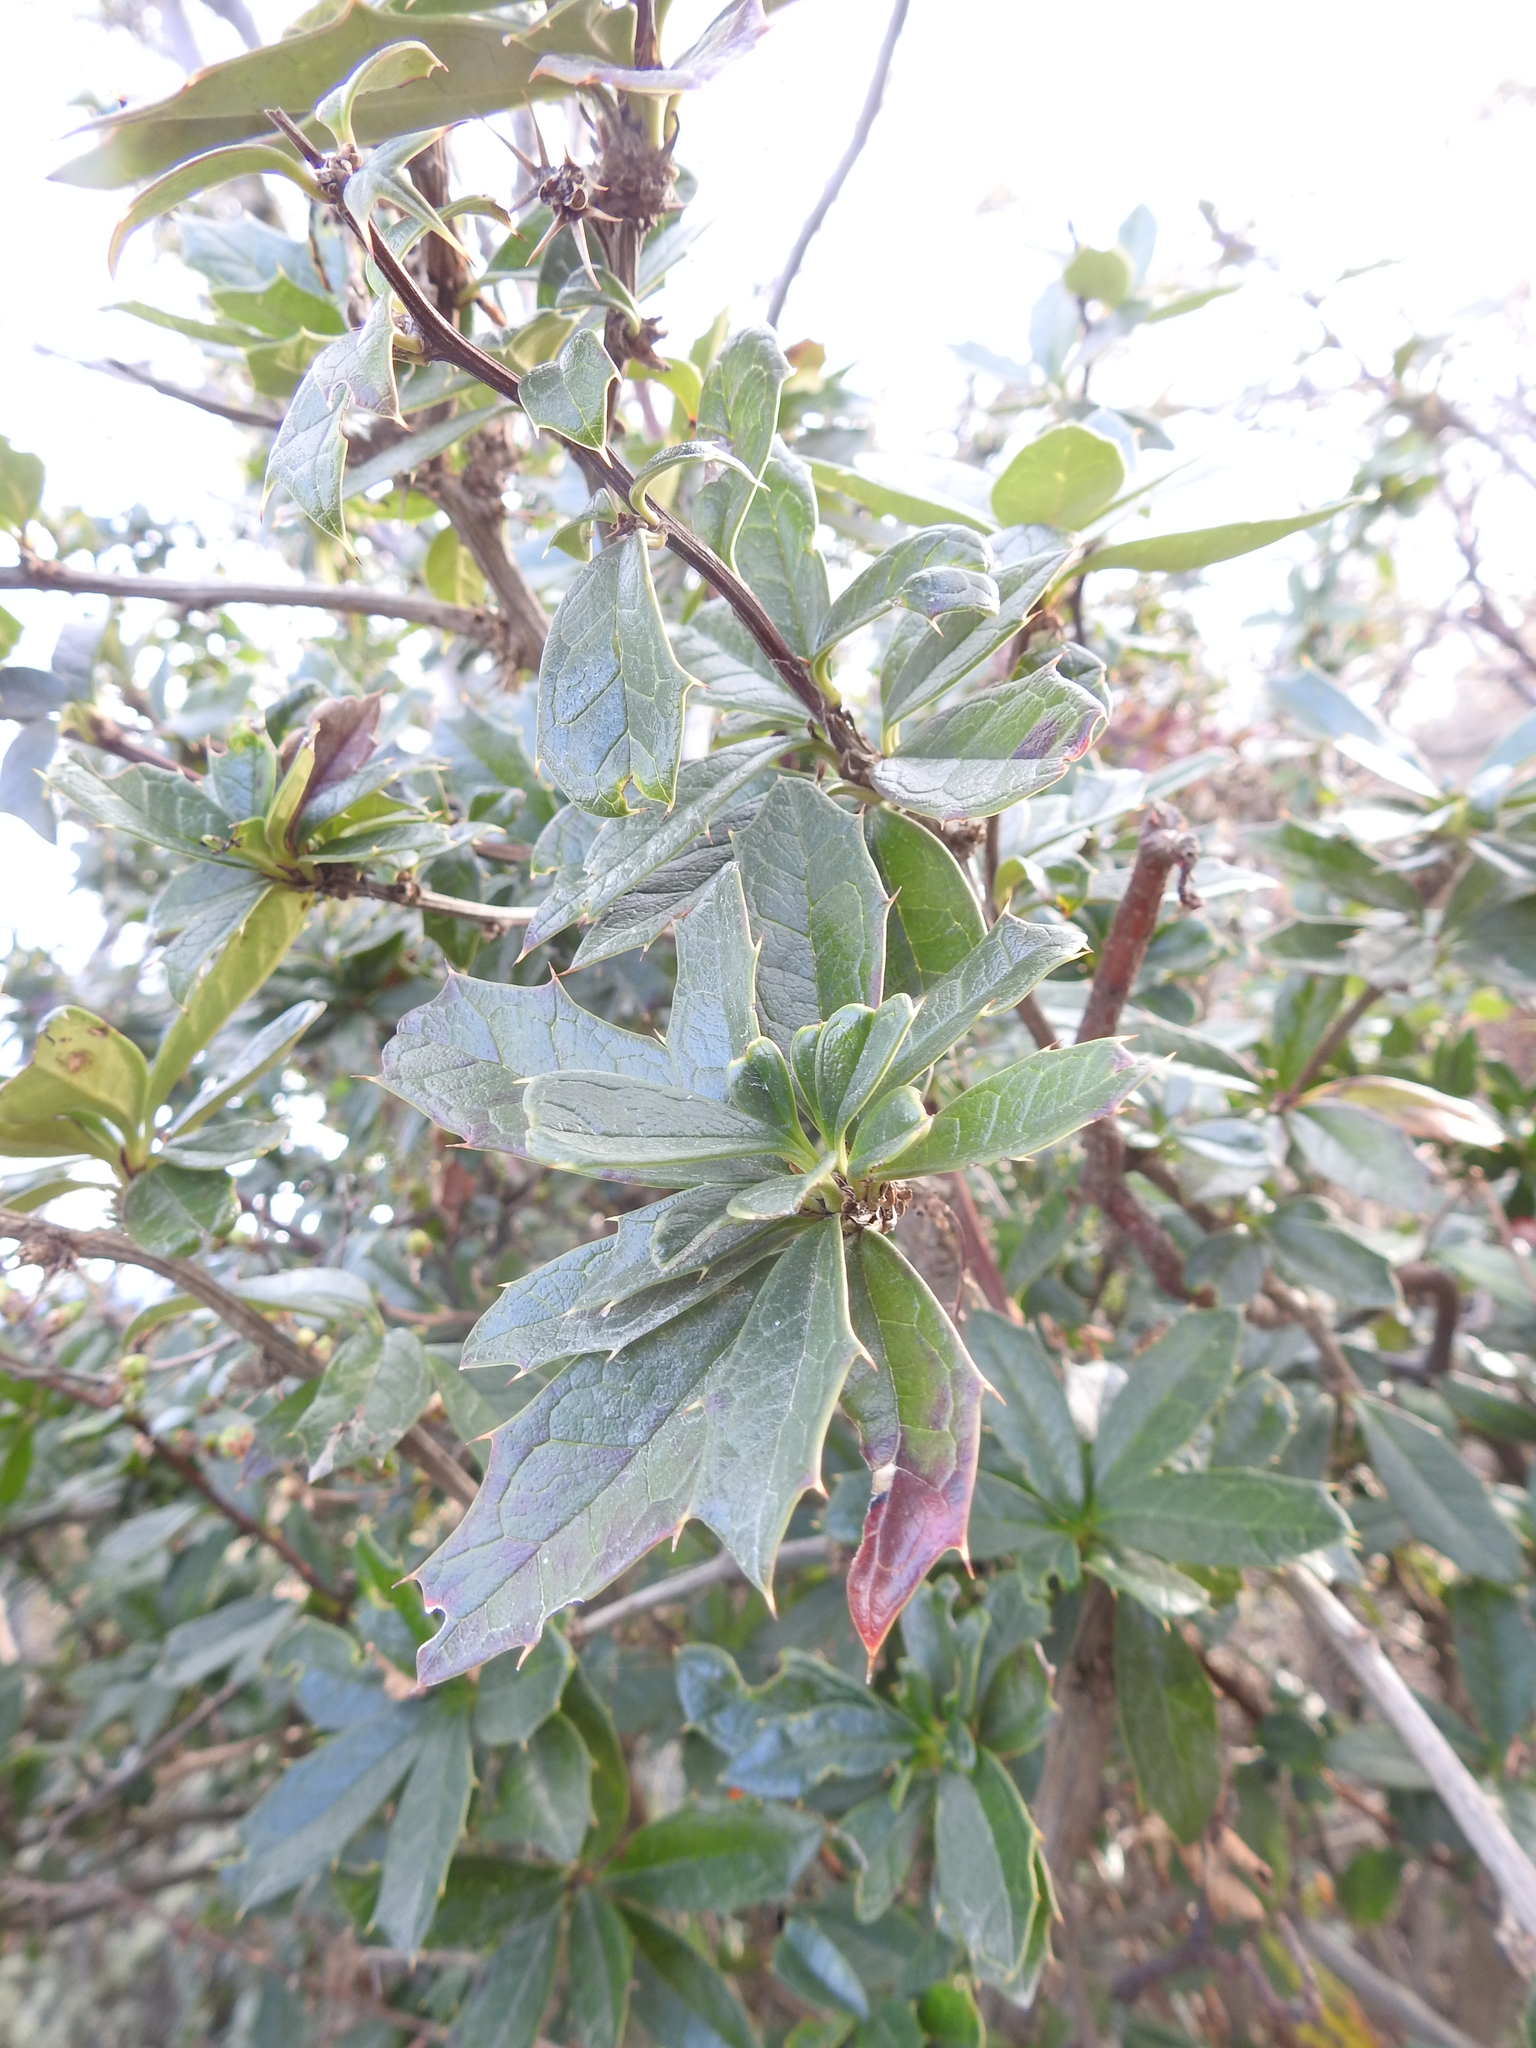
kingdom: Plantae
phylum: Tracheophyta
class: Magnoliopsida
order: Ranunculales
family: Berberidaceae
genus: Berberis
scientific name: Berberis ilicifolia
